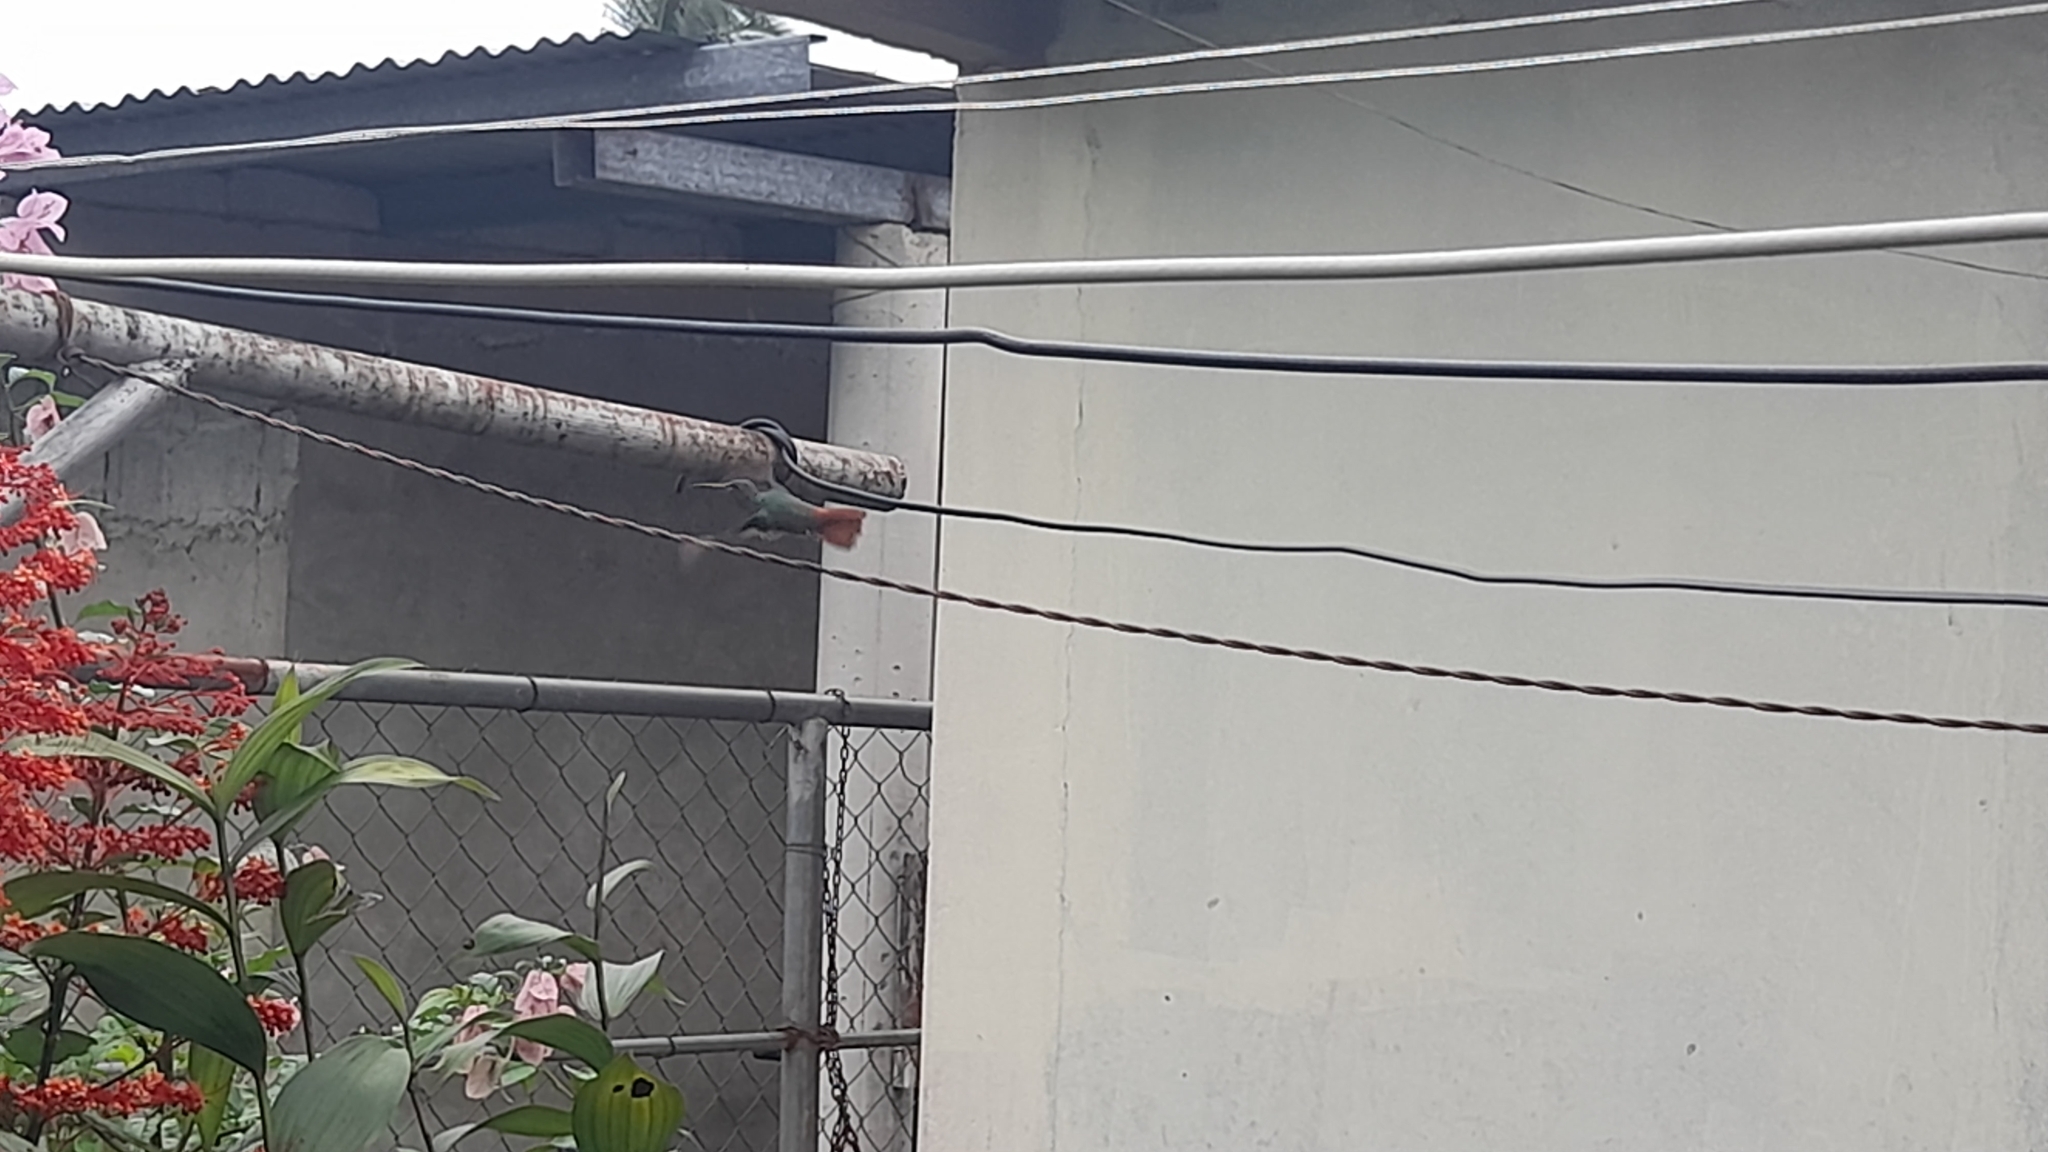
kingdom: Animalia
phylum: Chordata
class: Aves
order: Apodiformes
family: Trochilidae
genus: Amazilia
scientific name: Amazilia tzacatl
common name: Rufous-tailed hummingbird
